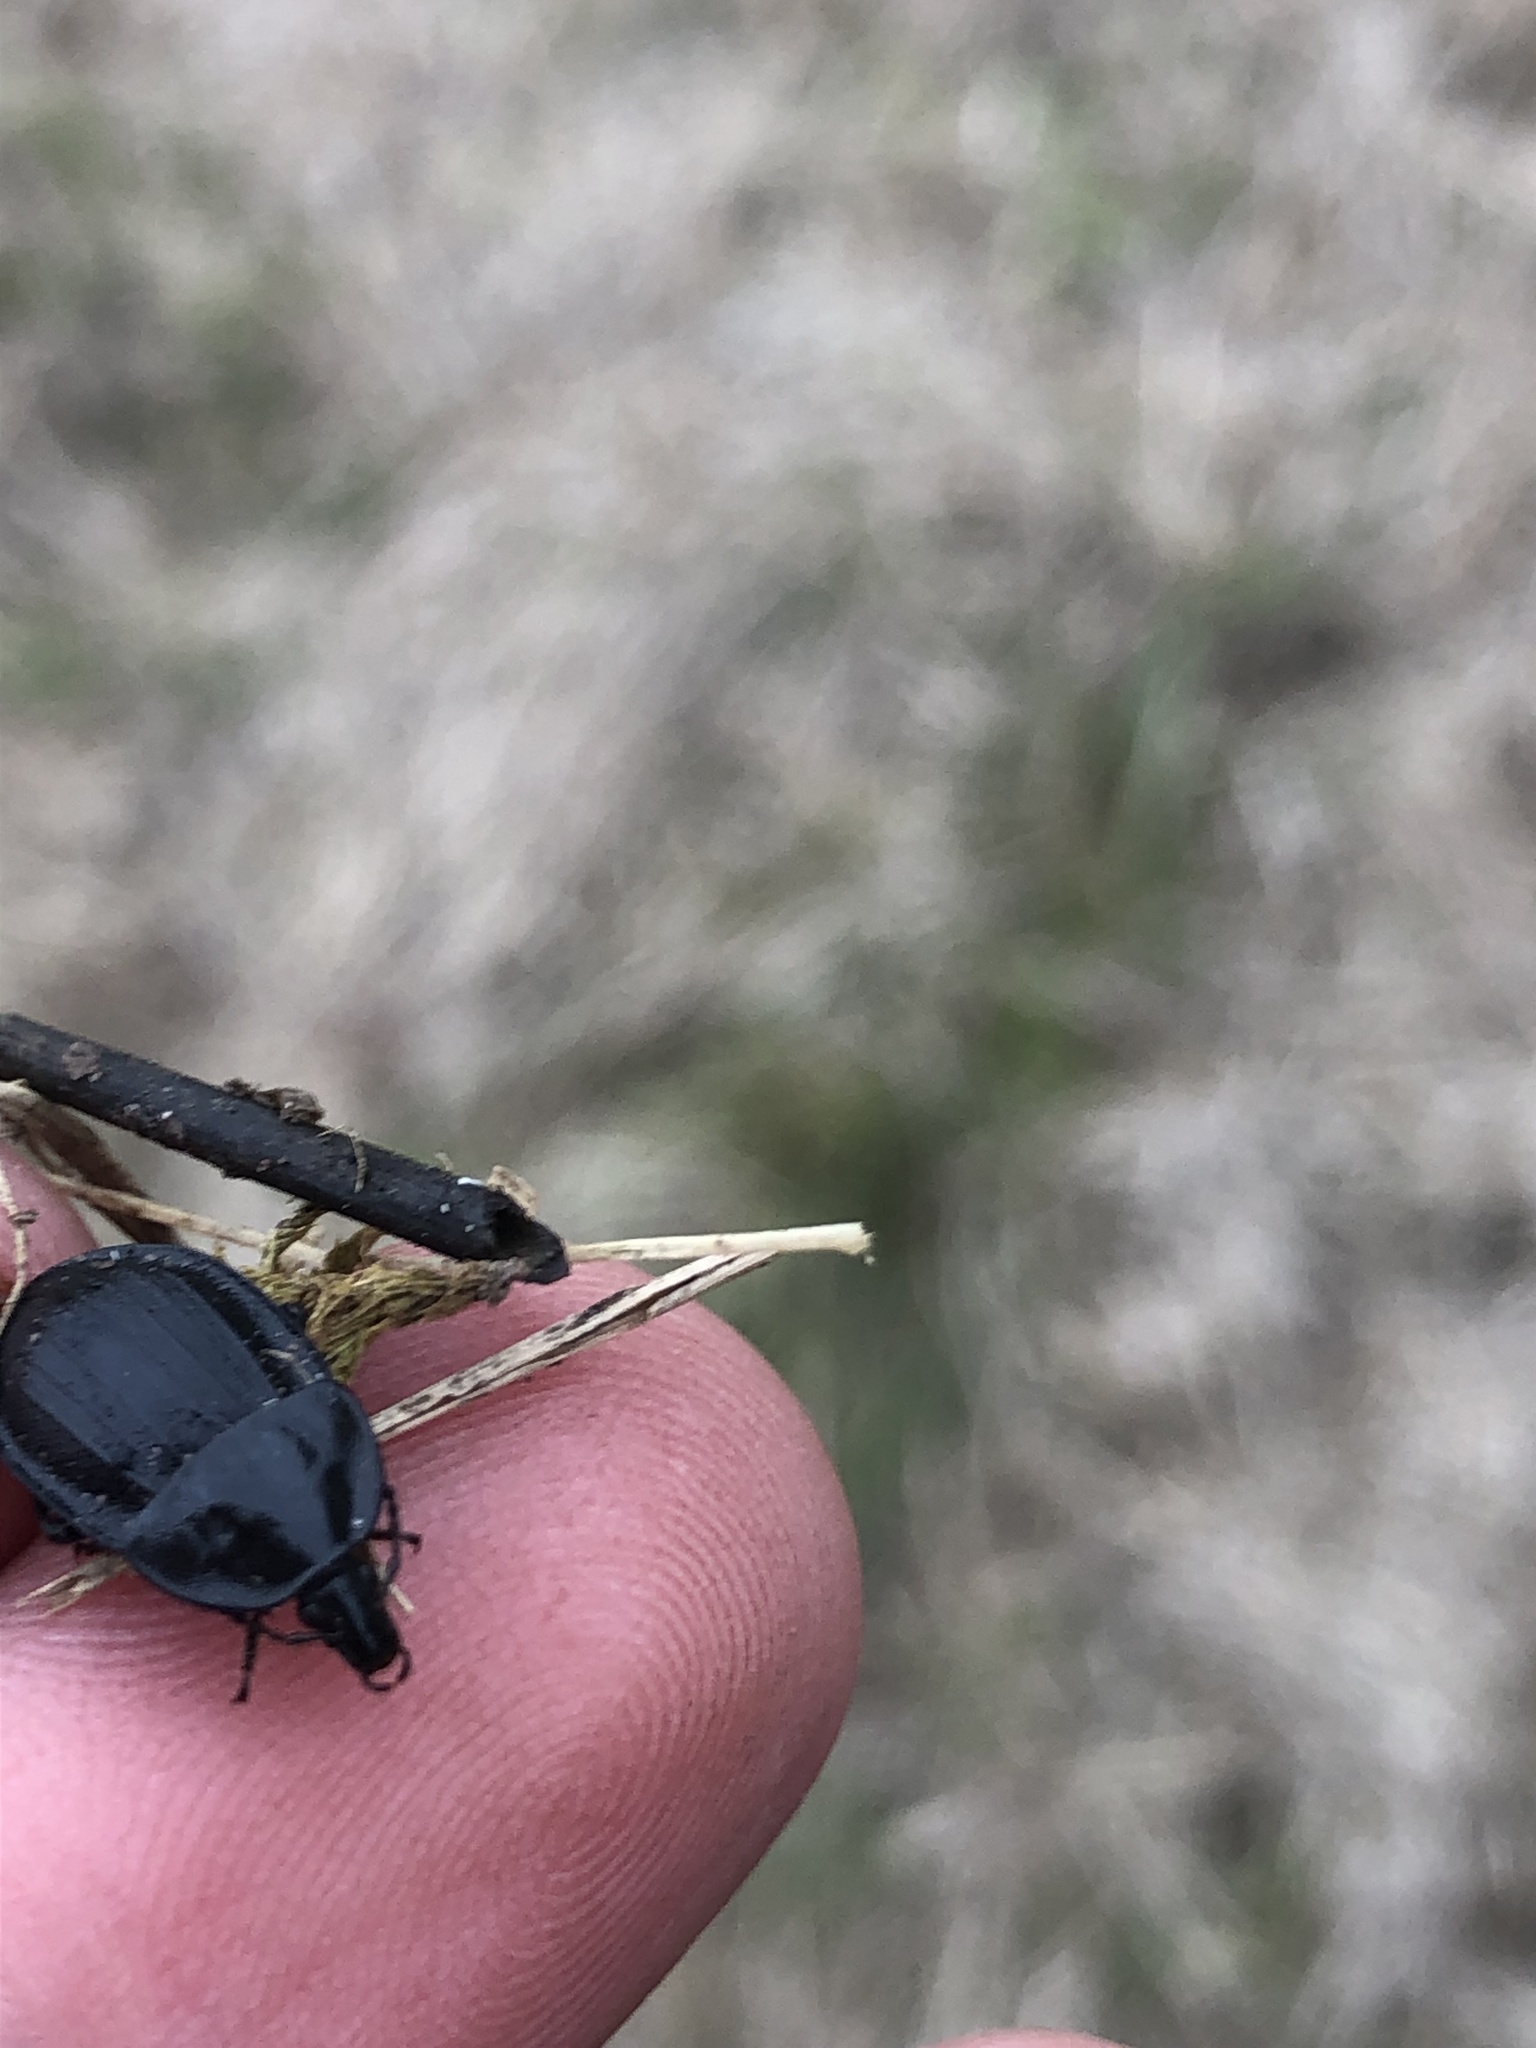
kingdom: Animalia
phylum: Arthropoda
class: Insecta
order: Coleoptera
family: Staphylinidae
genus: Silpha
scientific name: Silpha atrata
